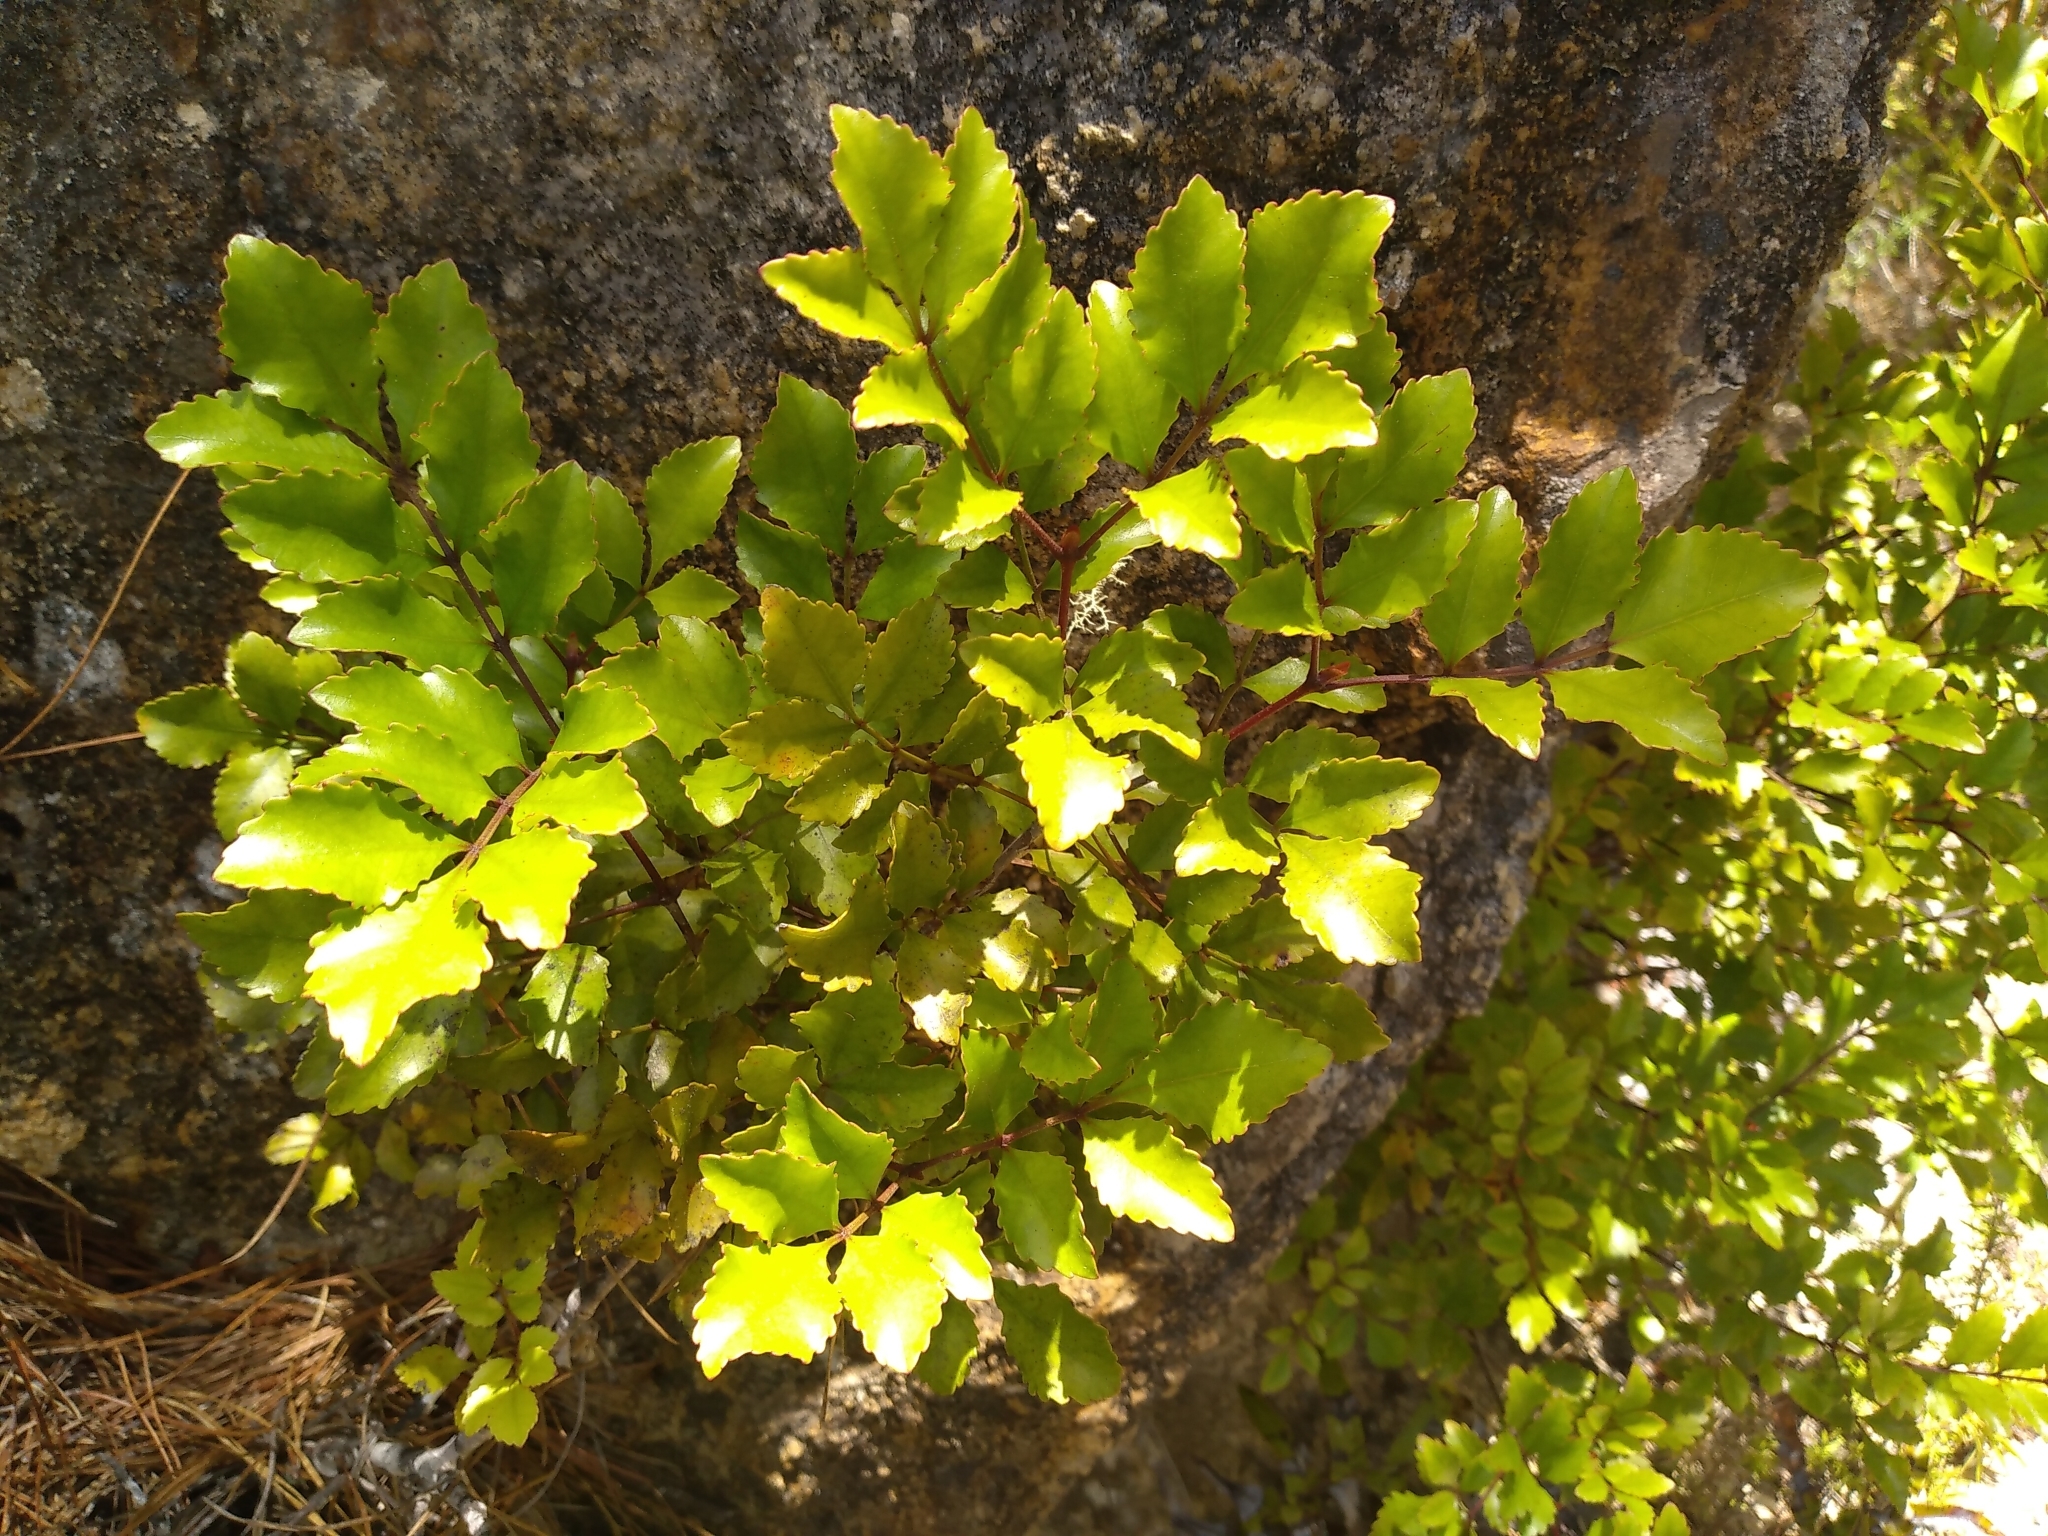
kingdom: Plantae
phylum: Tracheophyta
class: Magnoliopsida
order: Oxalidales
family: Cunoniaceae
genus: Pterophylla
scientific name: Pterophylla sylvicola
